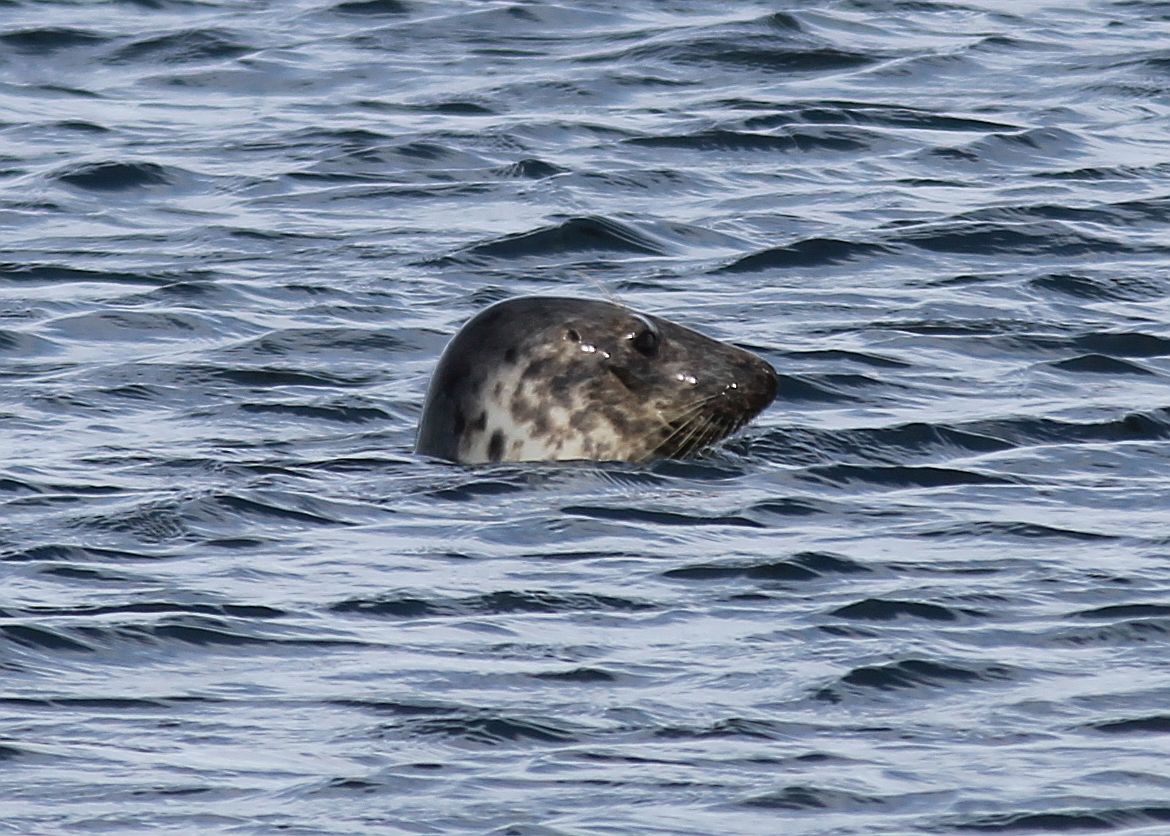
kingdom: Animalia
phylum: Chordata
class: Mammalia
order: Carnivora
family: Phocidae
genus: Halichoerus
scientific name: Halichoerus grypus
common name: Grey seal
